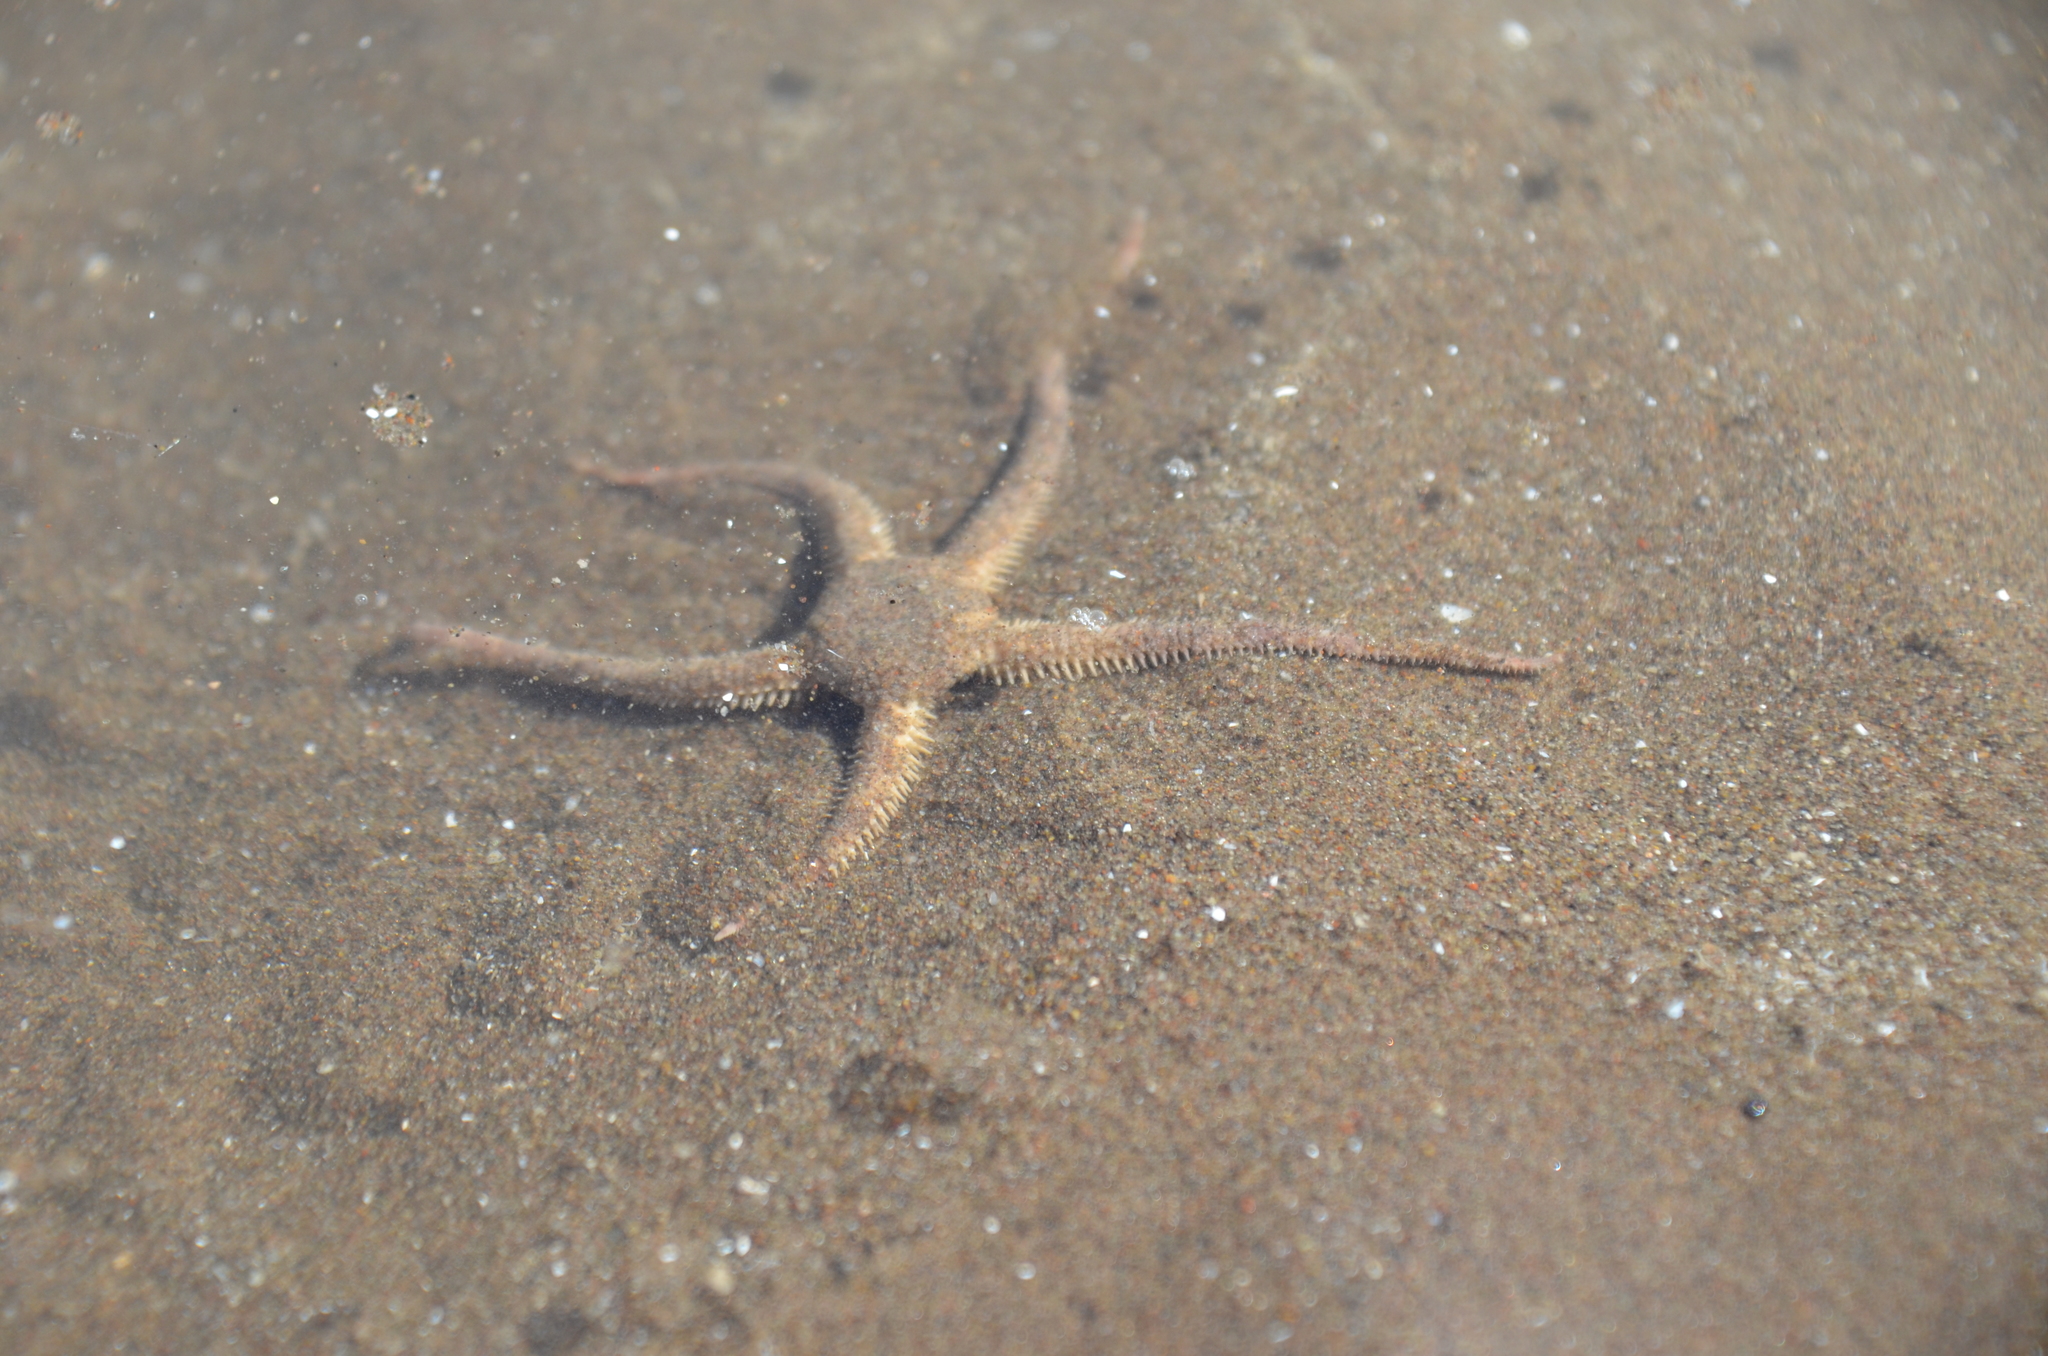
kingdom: Animalia
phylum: Echinodermata
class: Ophiuroidea
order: Amphilepidida
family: Hemieuryalidae
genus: Ophioplocus
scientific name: Ophioplocus januarii
